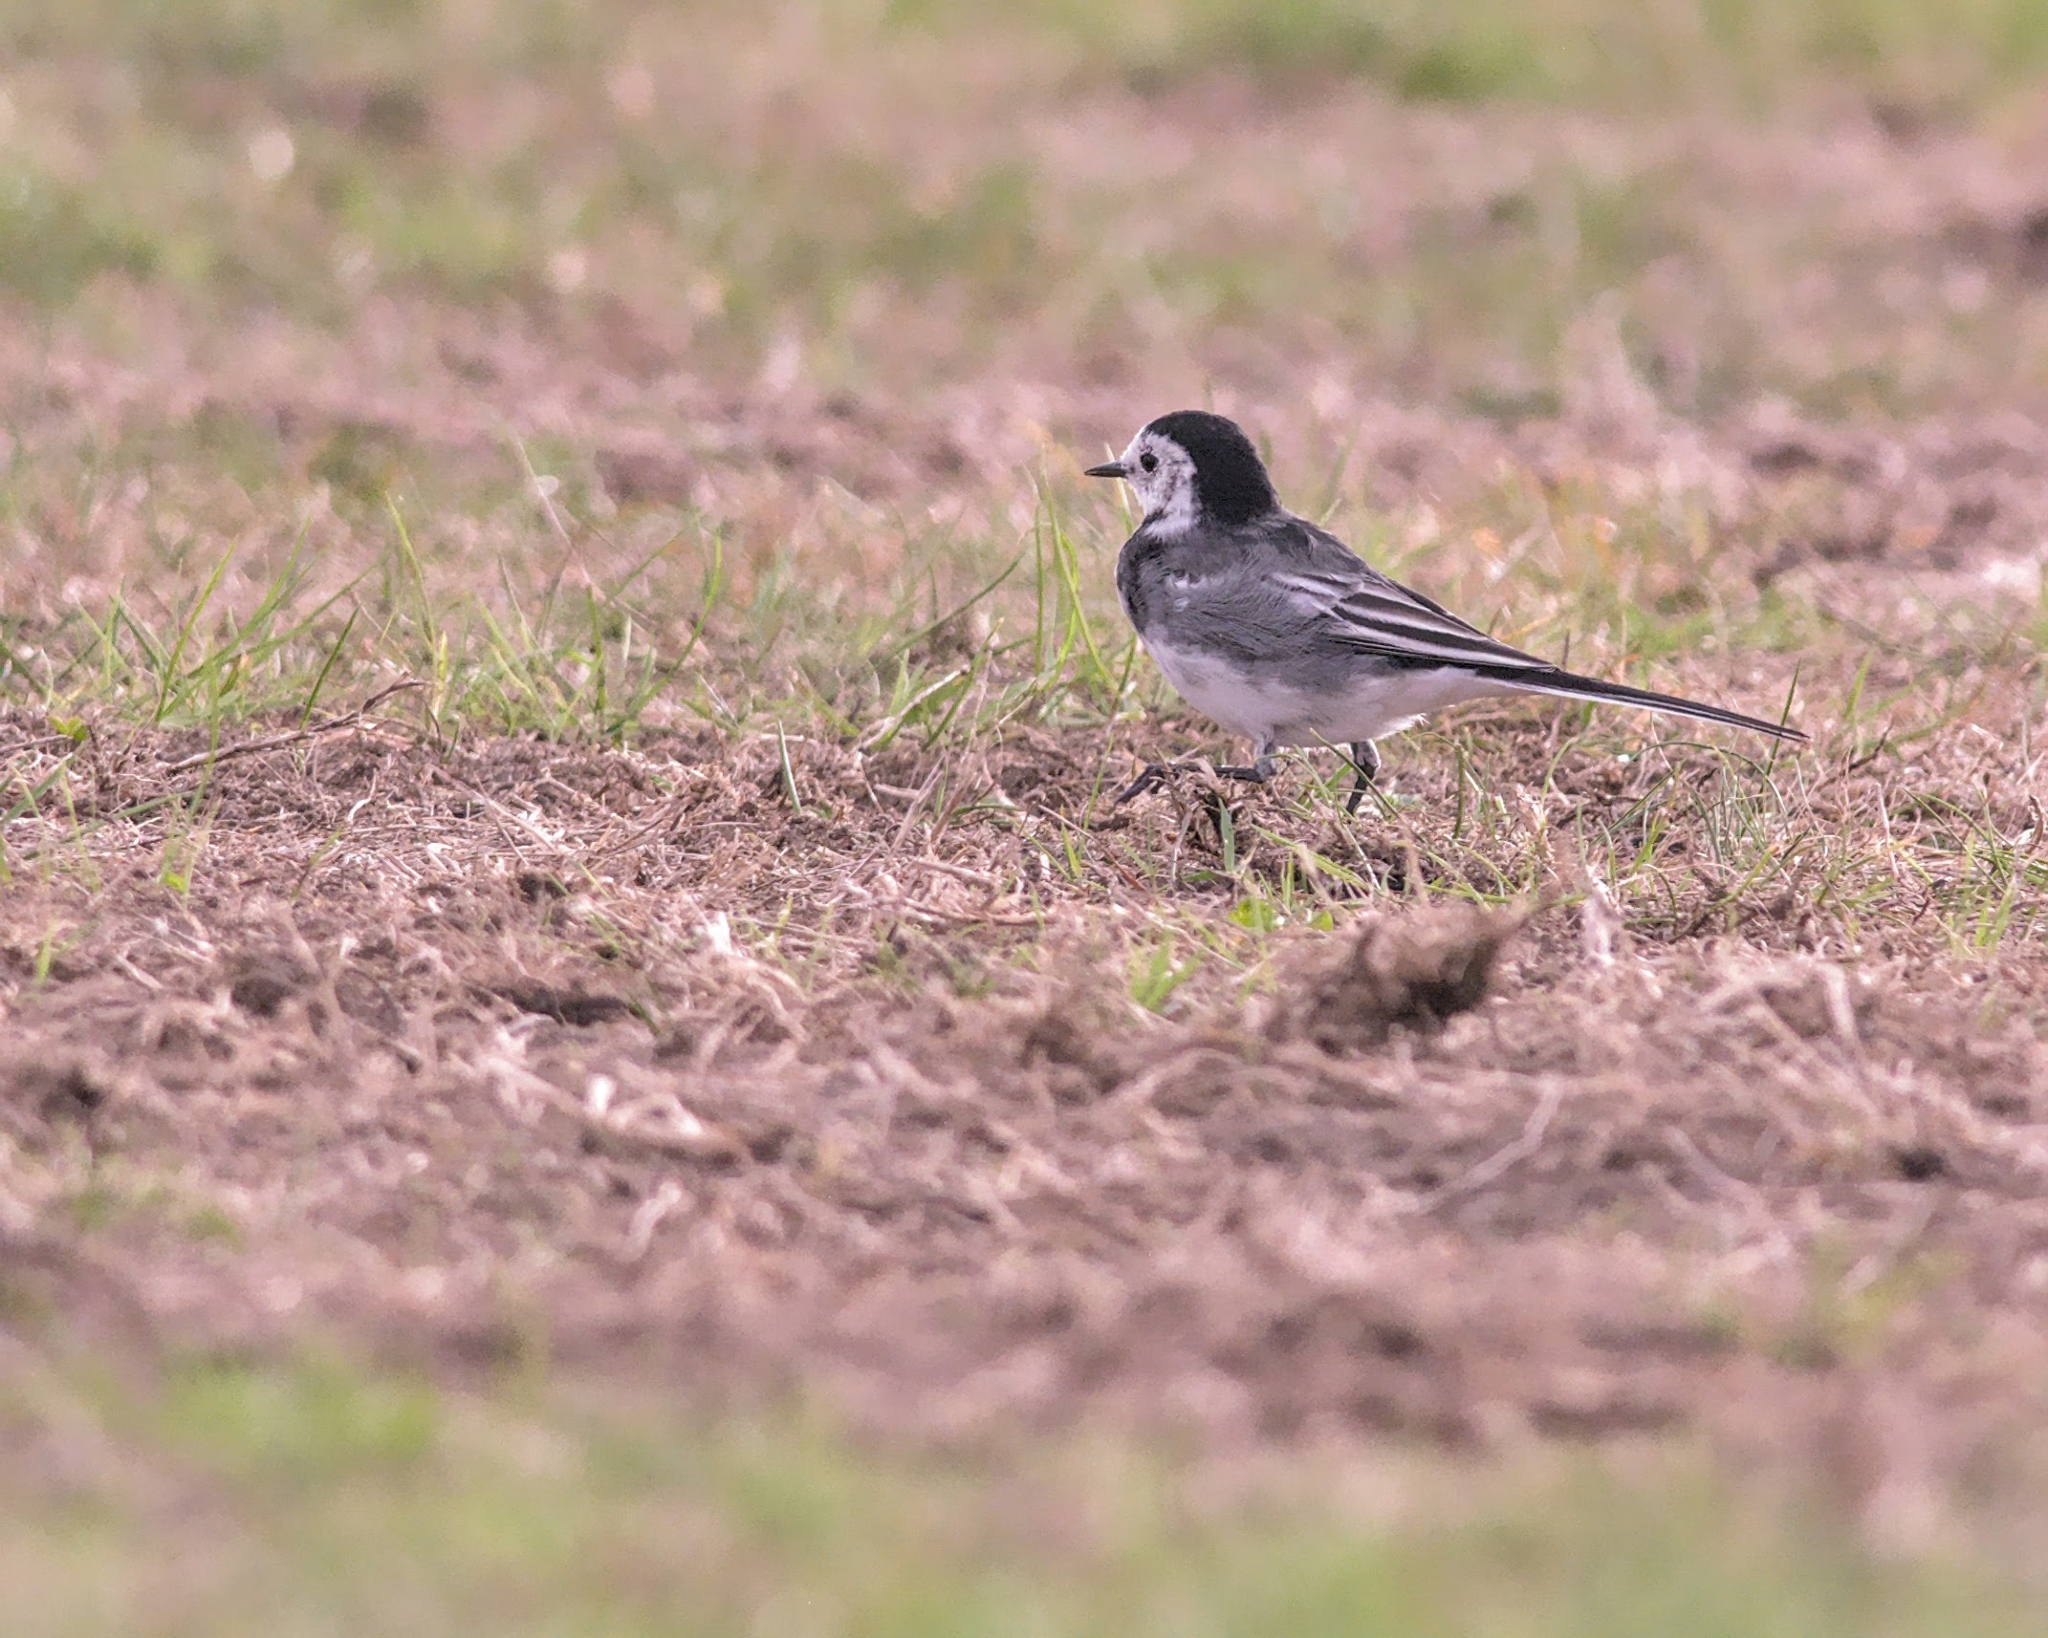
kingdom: Animalia
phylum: Chordata
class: Aves
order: Passeriformes
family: Motacillidae
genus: Motacilla
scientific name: Motacilla alba
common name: White wagtail
